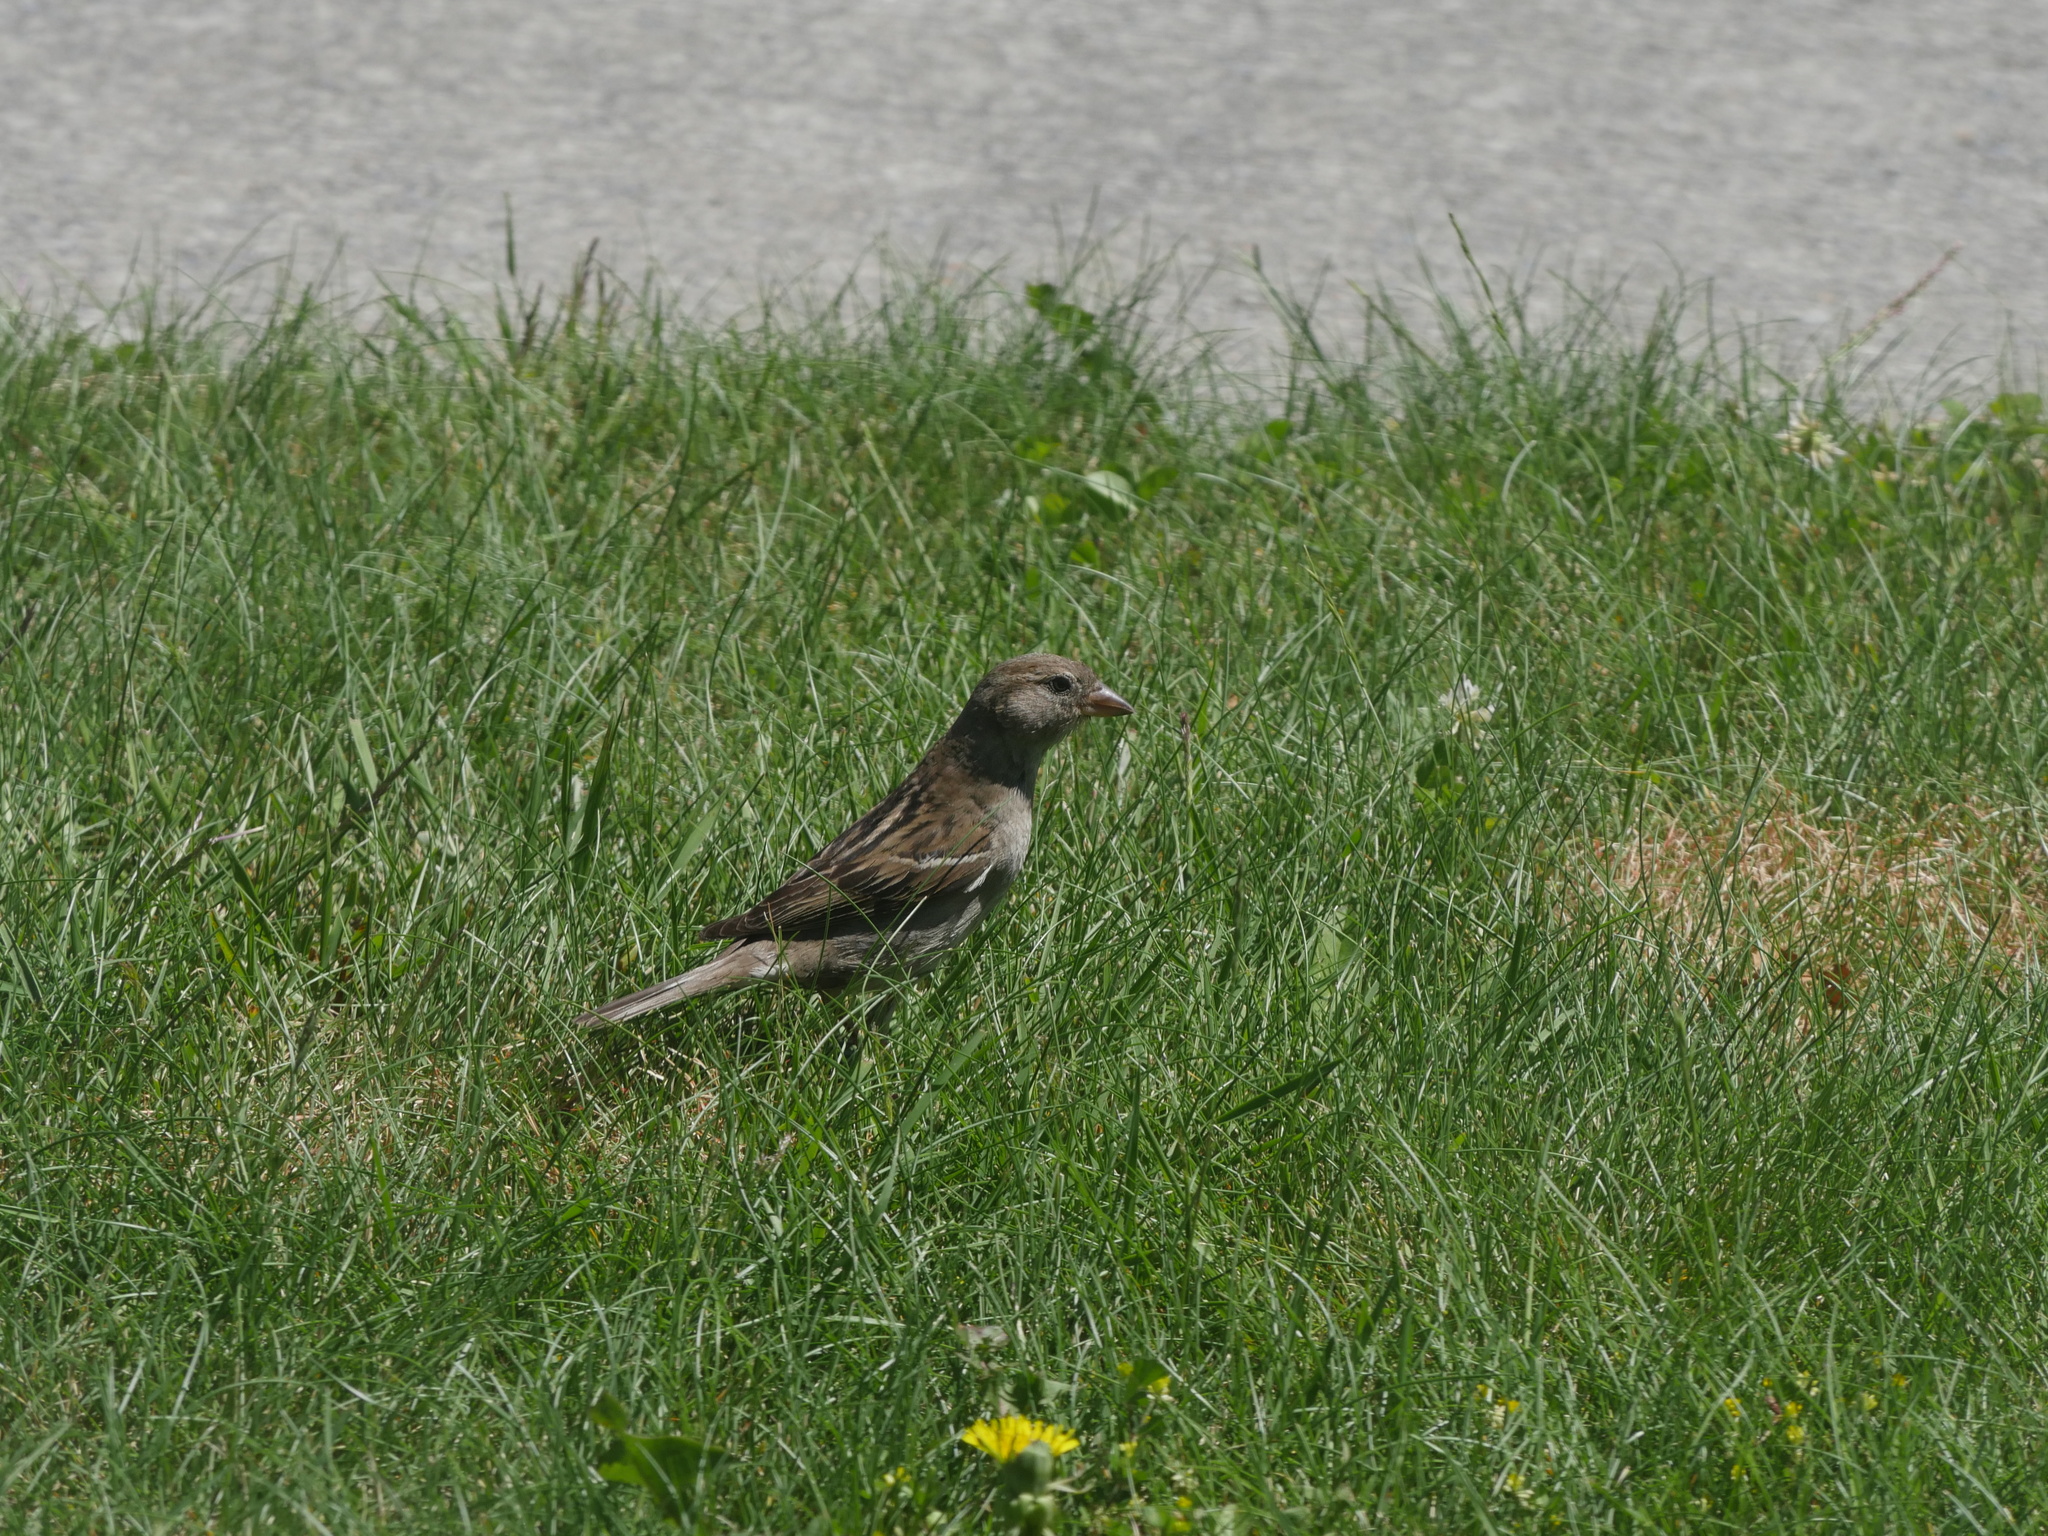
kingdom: Animalia
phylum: Chordata
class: Aves
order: Passeriformes
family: Passeridae
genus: Passer
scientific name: Passer domesticus
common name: House sparrow
